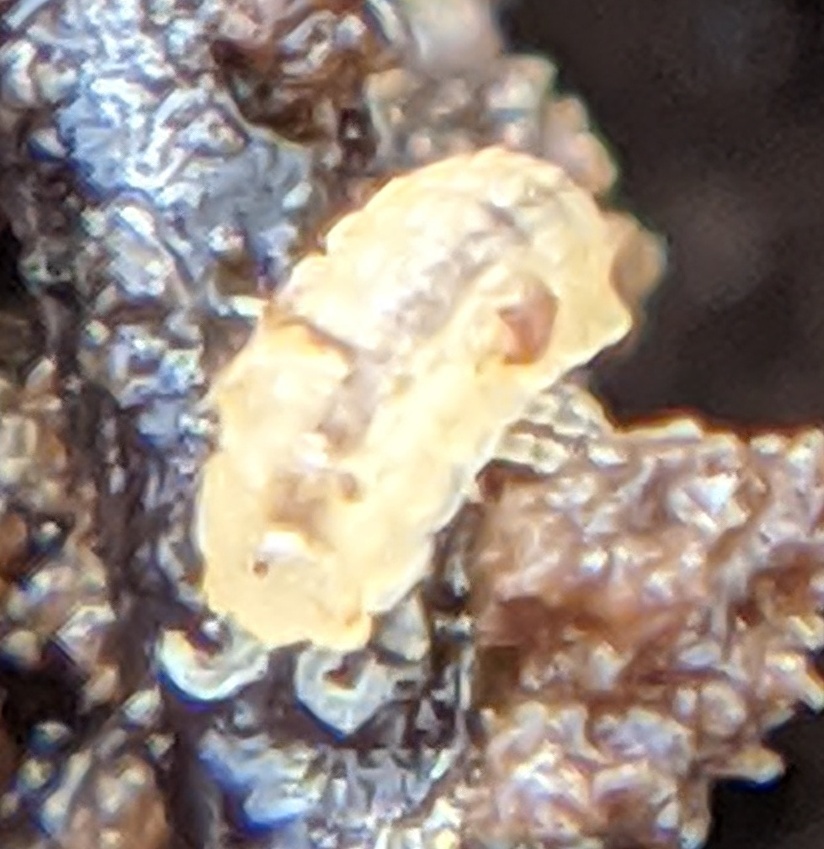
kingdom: Animalia
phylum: Arthropoda
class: Malacostraca
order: Isopoda
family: Trichoniscidae
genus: Haplophthalmus
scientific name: Haplophthalmus danicus
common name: Pillbug
